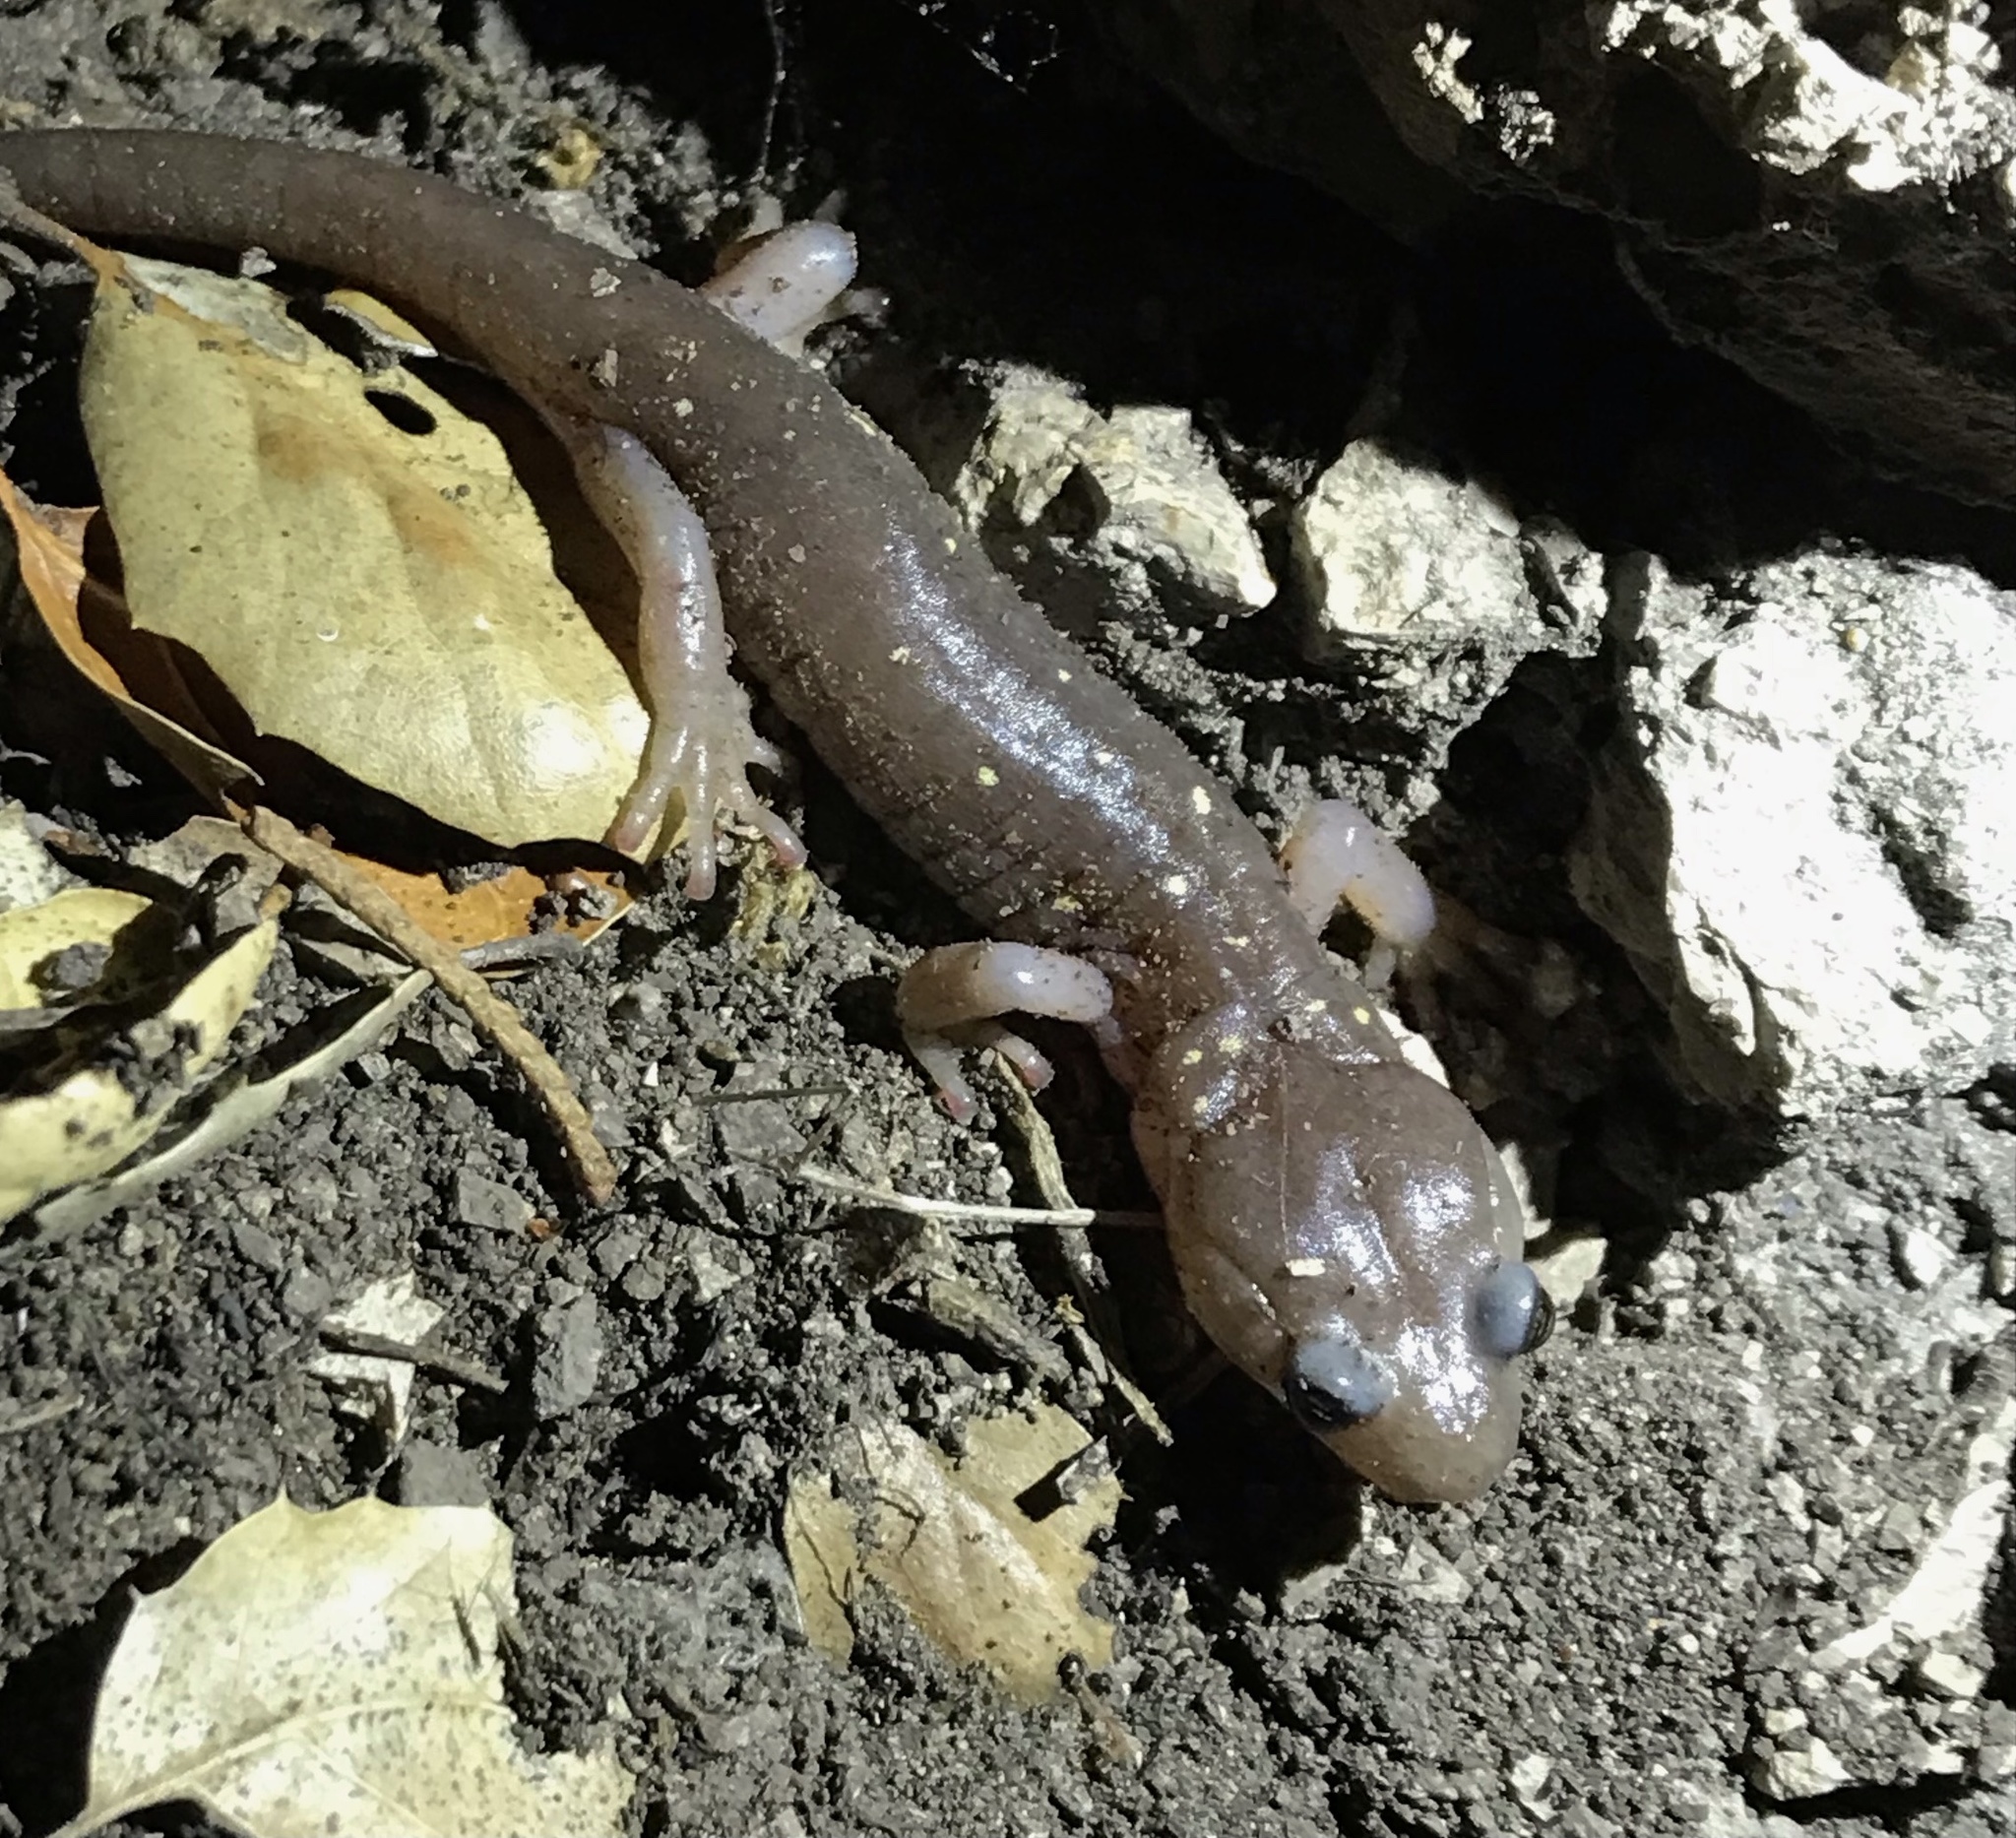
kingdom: Animalia
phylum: Chordata
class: Amphibia
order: Caudata
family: Plethodontidae
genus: Aneides
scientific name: Aneides lugubris
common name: Arboreal salamander
